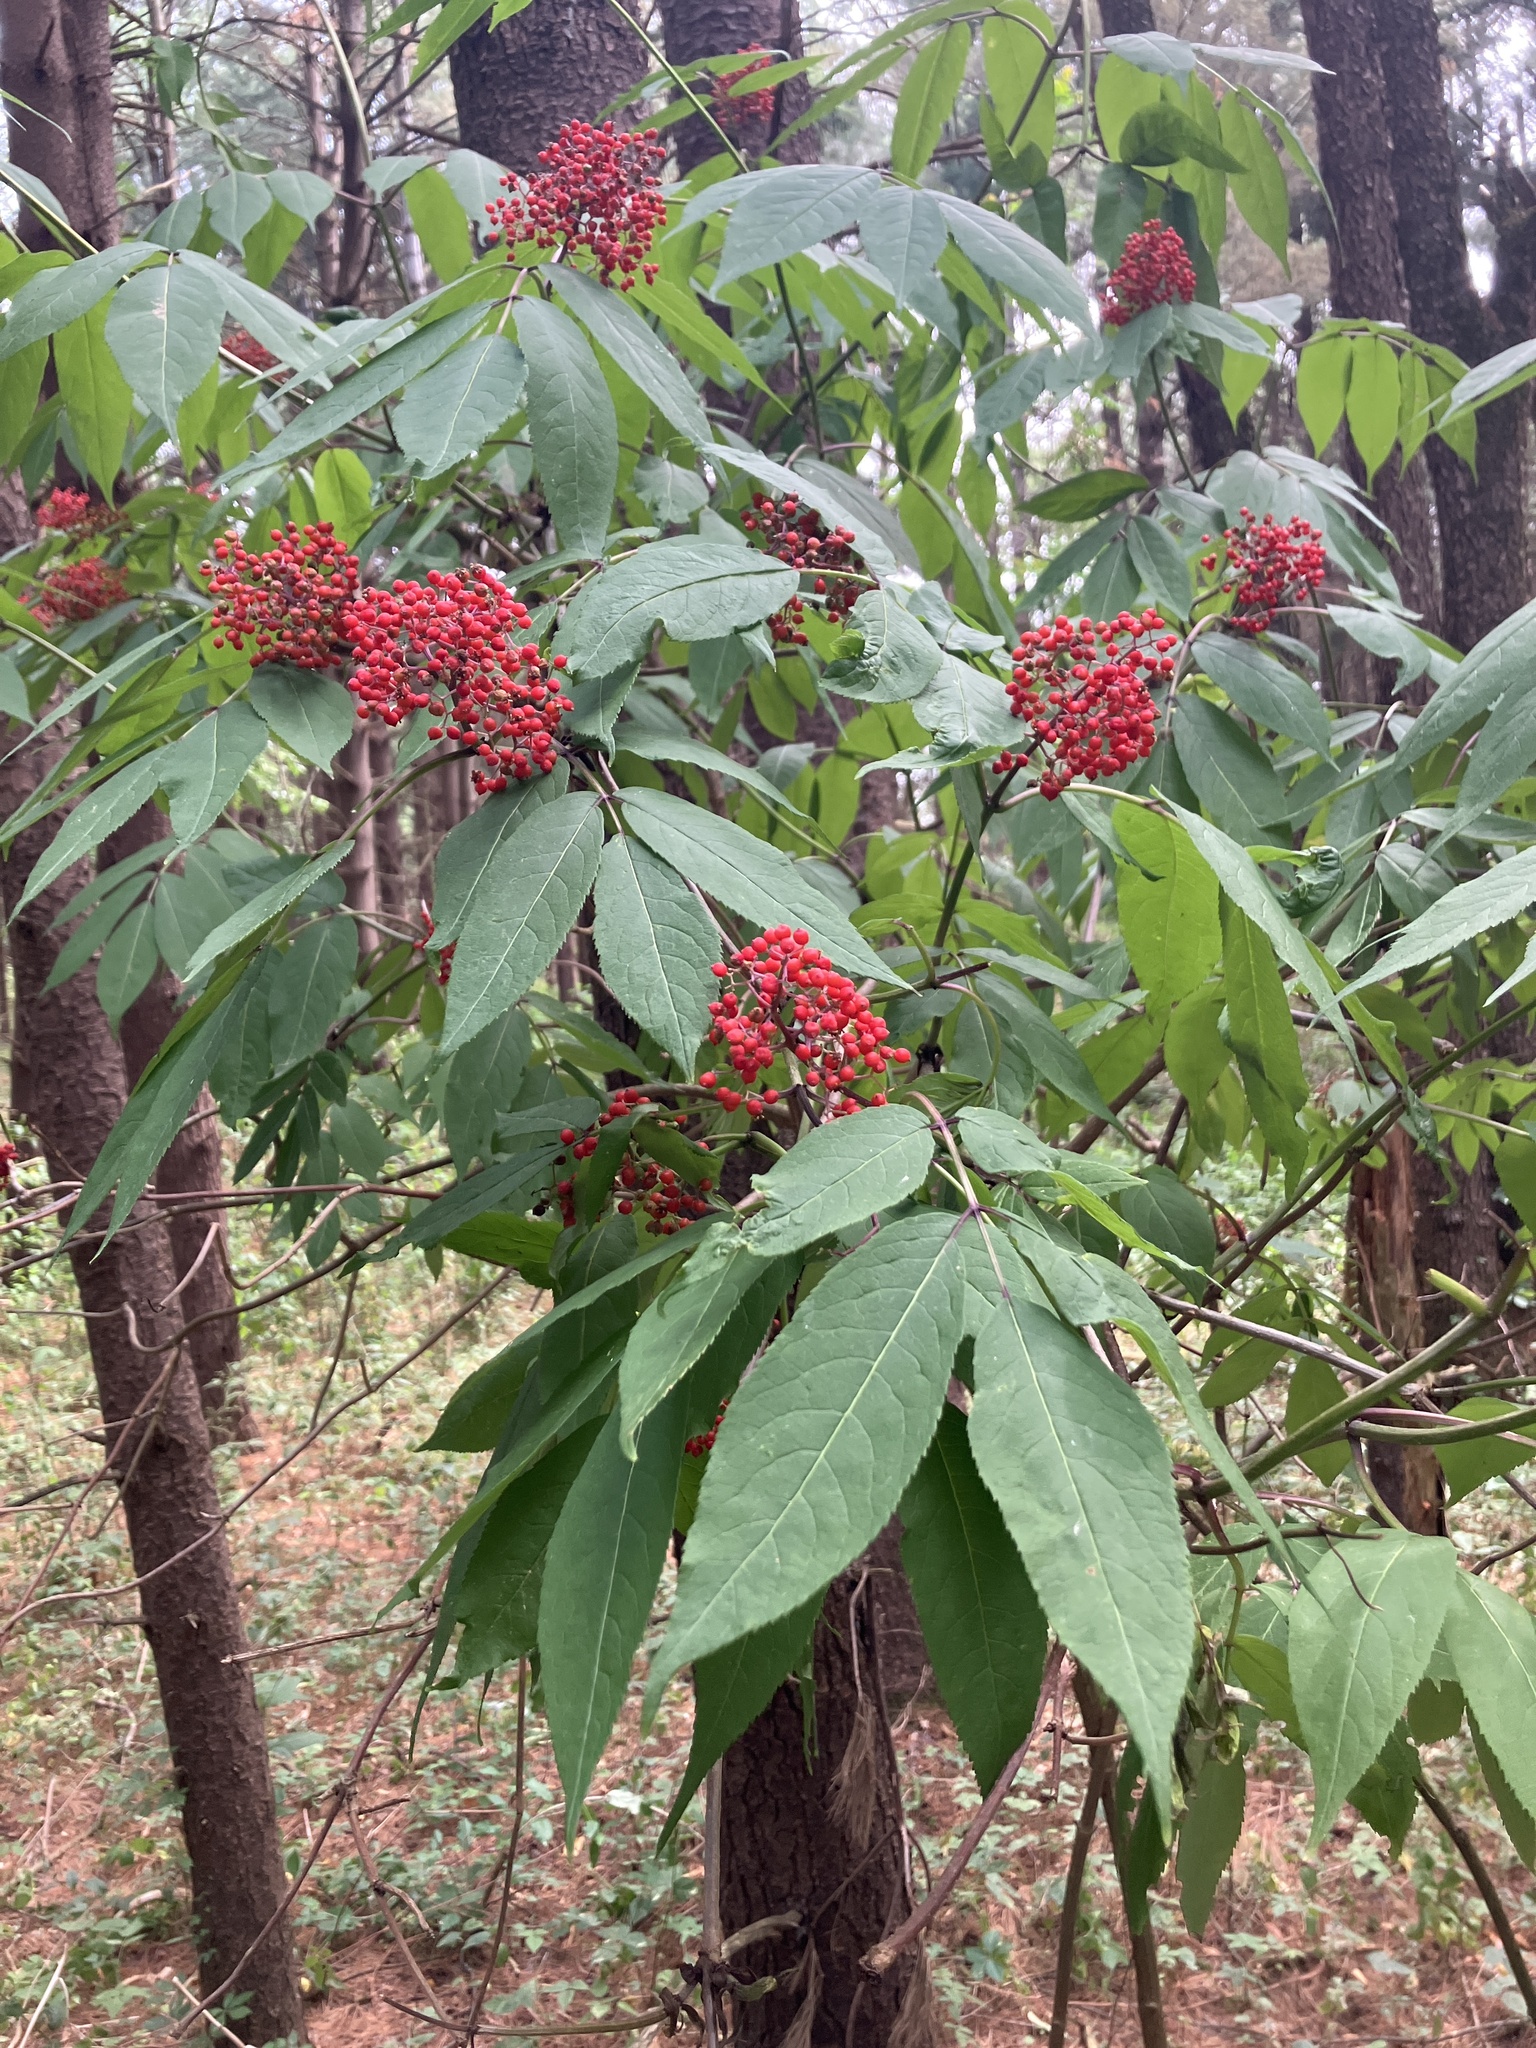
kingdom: Plantae
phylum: Tracheophyta
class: Magnoliopsida
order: Dipsacales
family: Viburnaceae
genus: Sambucus
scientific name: Sambucus racemosa
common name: Red-berried elder
